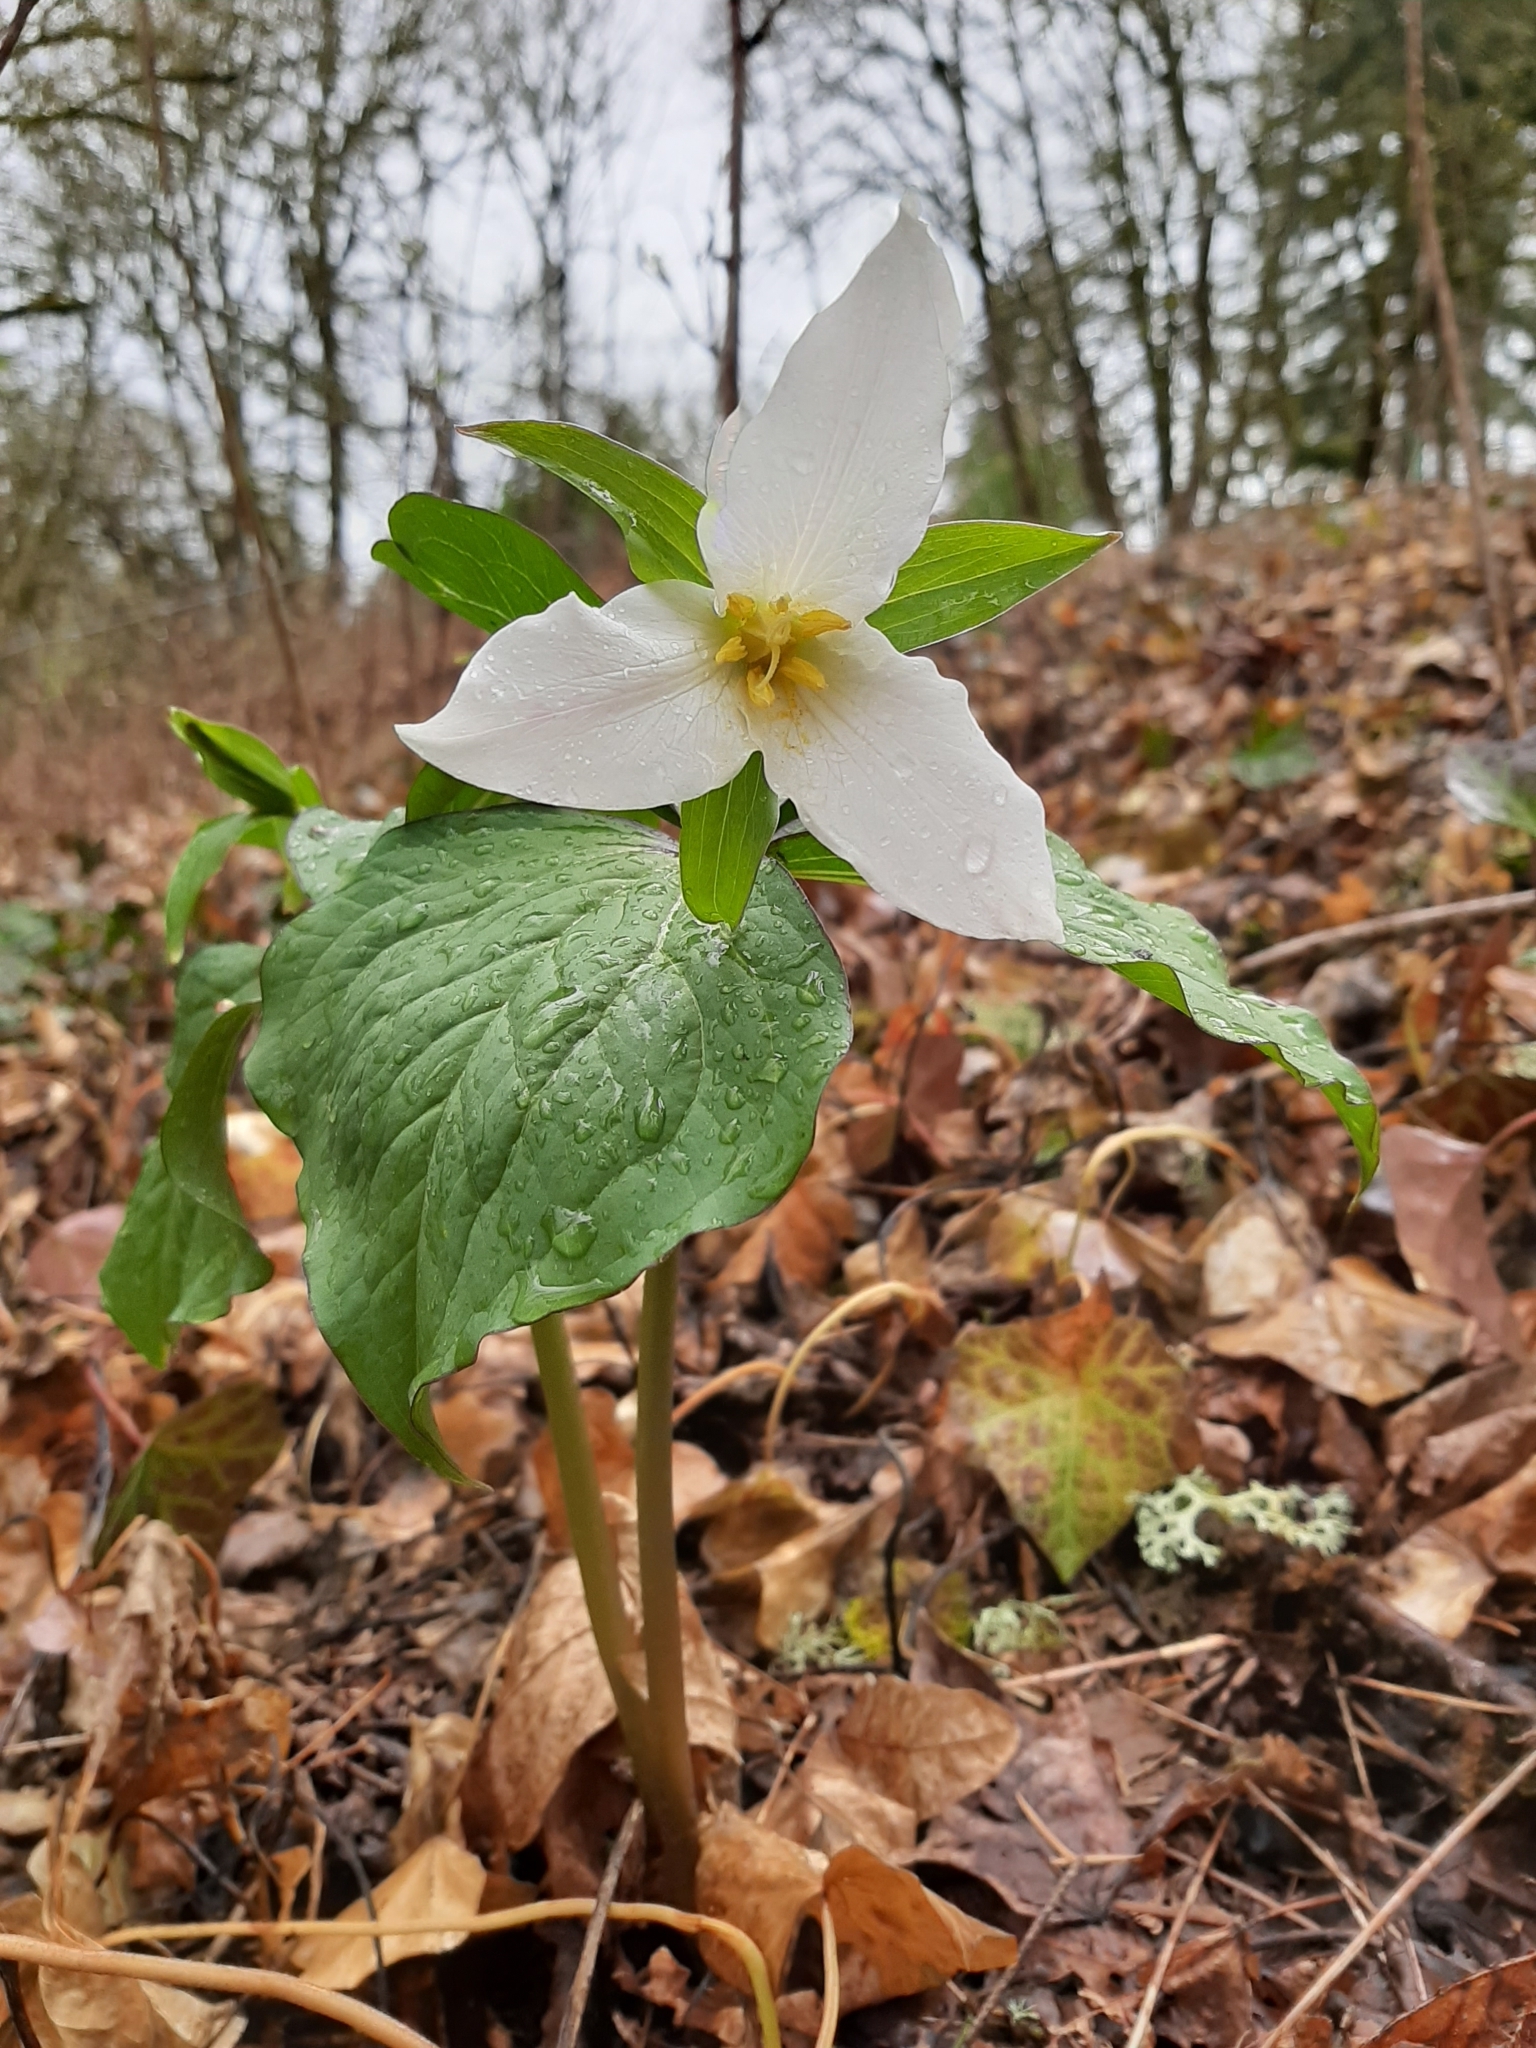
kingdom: Plantae
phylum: Tracheophyta
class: Liliopsida
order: Liliales
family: Melanthiaceae
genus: Trillium
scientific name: Trillium ovatum
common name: Pacific trillium
